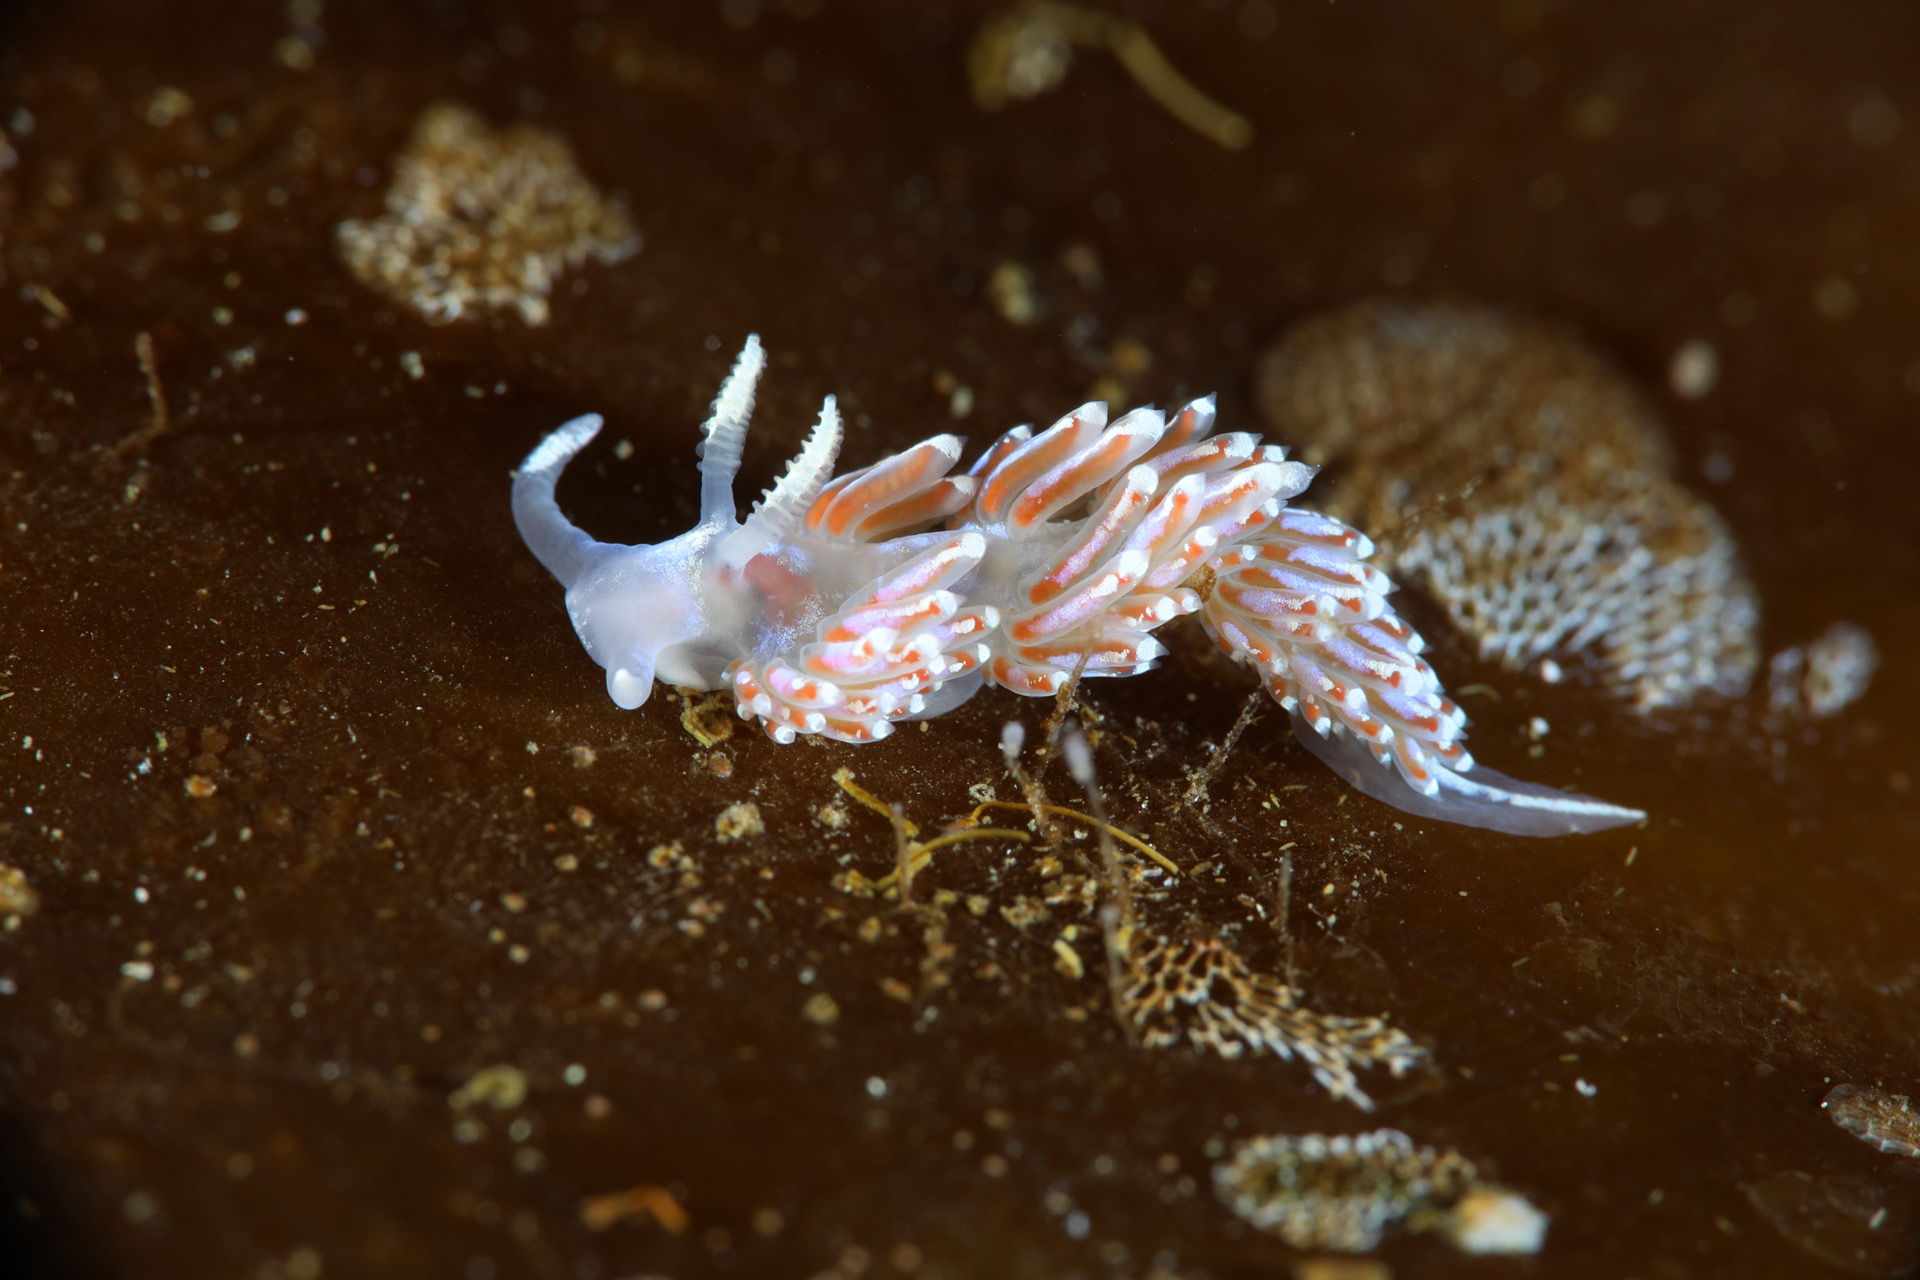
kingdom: Animalia
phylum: Mollusca
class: Gastropoda
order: Nudibranchia
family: Facelinidae
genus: Facelina
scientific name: Facelina auriculata
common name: Slender facelina
